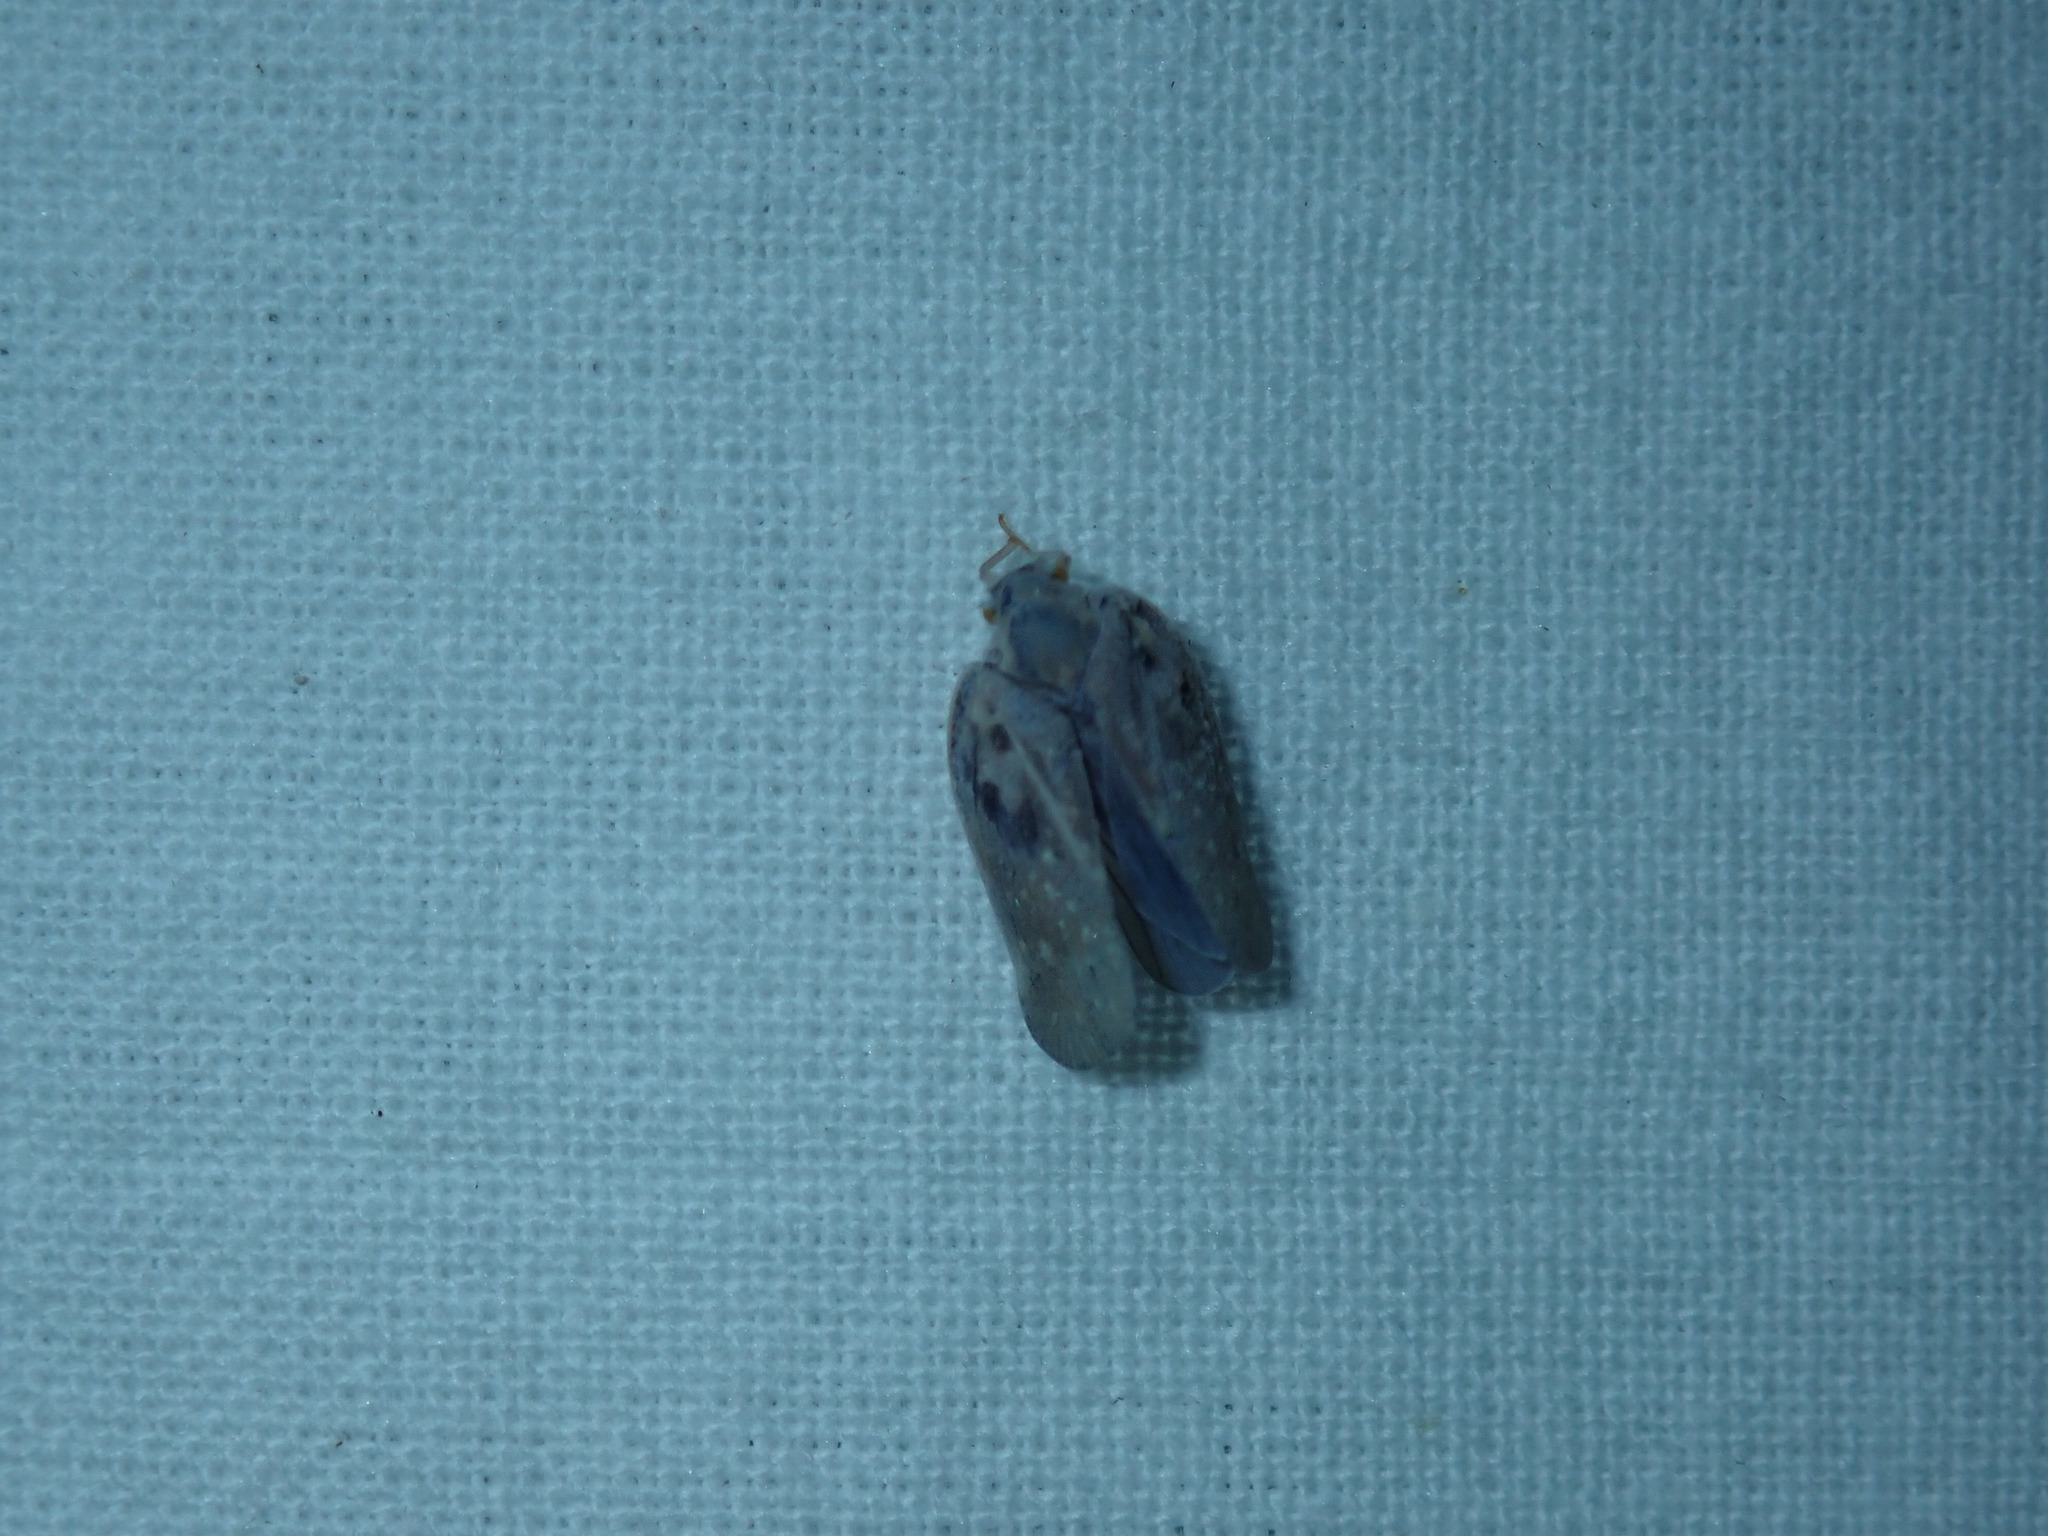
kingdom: Animalia
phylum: Arthropoda
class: Insecta
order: Hemiptera
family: Flatidae
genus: Metcalfa
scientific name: Metcalfa pruinosa
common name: Citrus flatid planthopper
